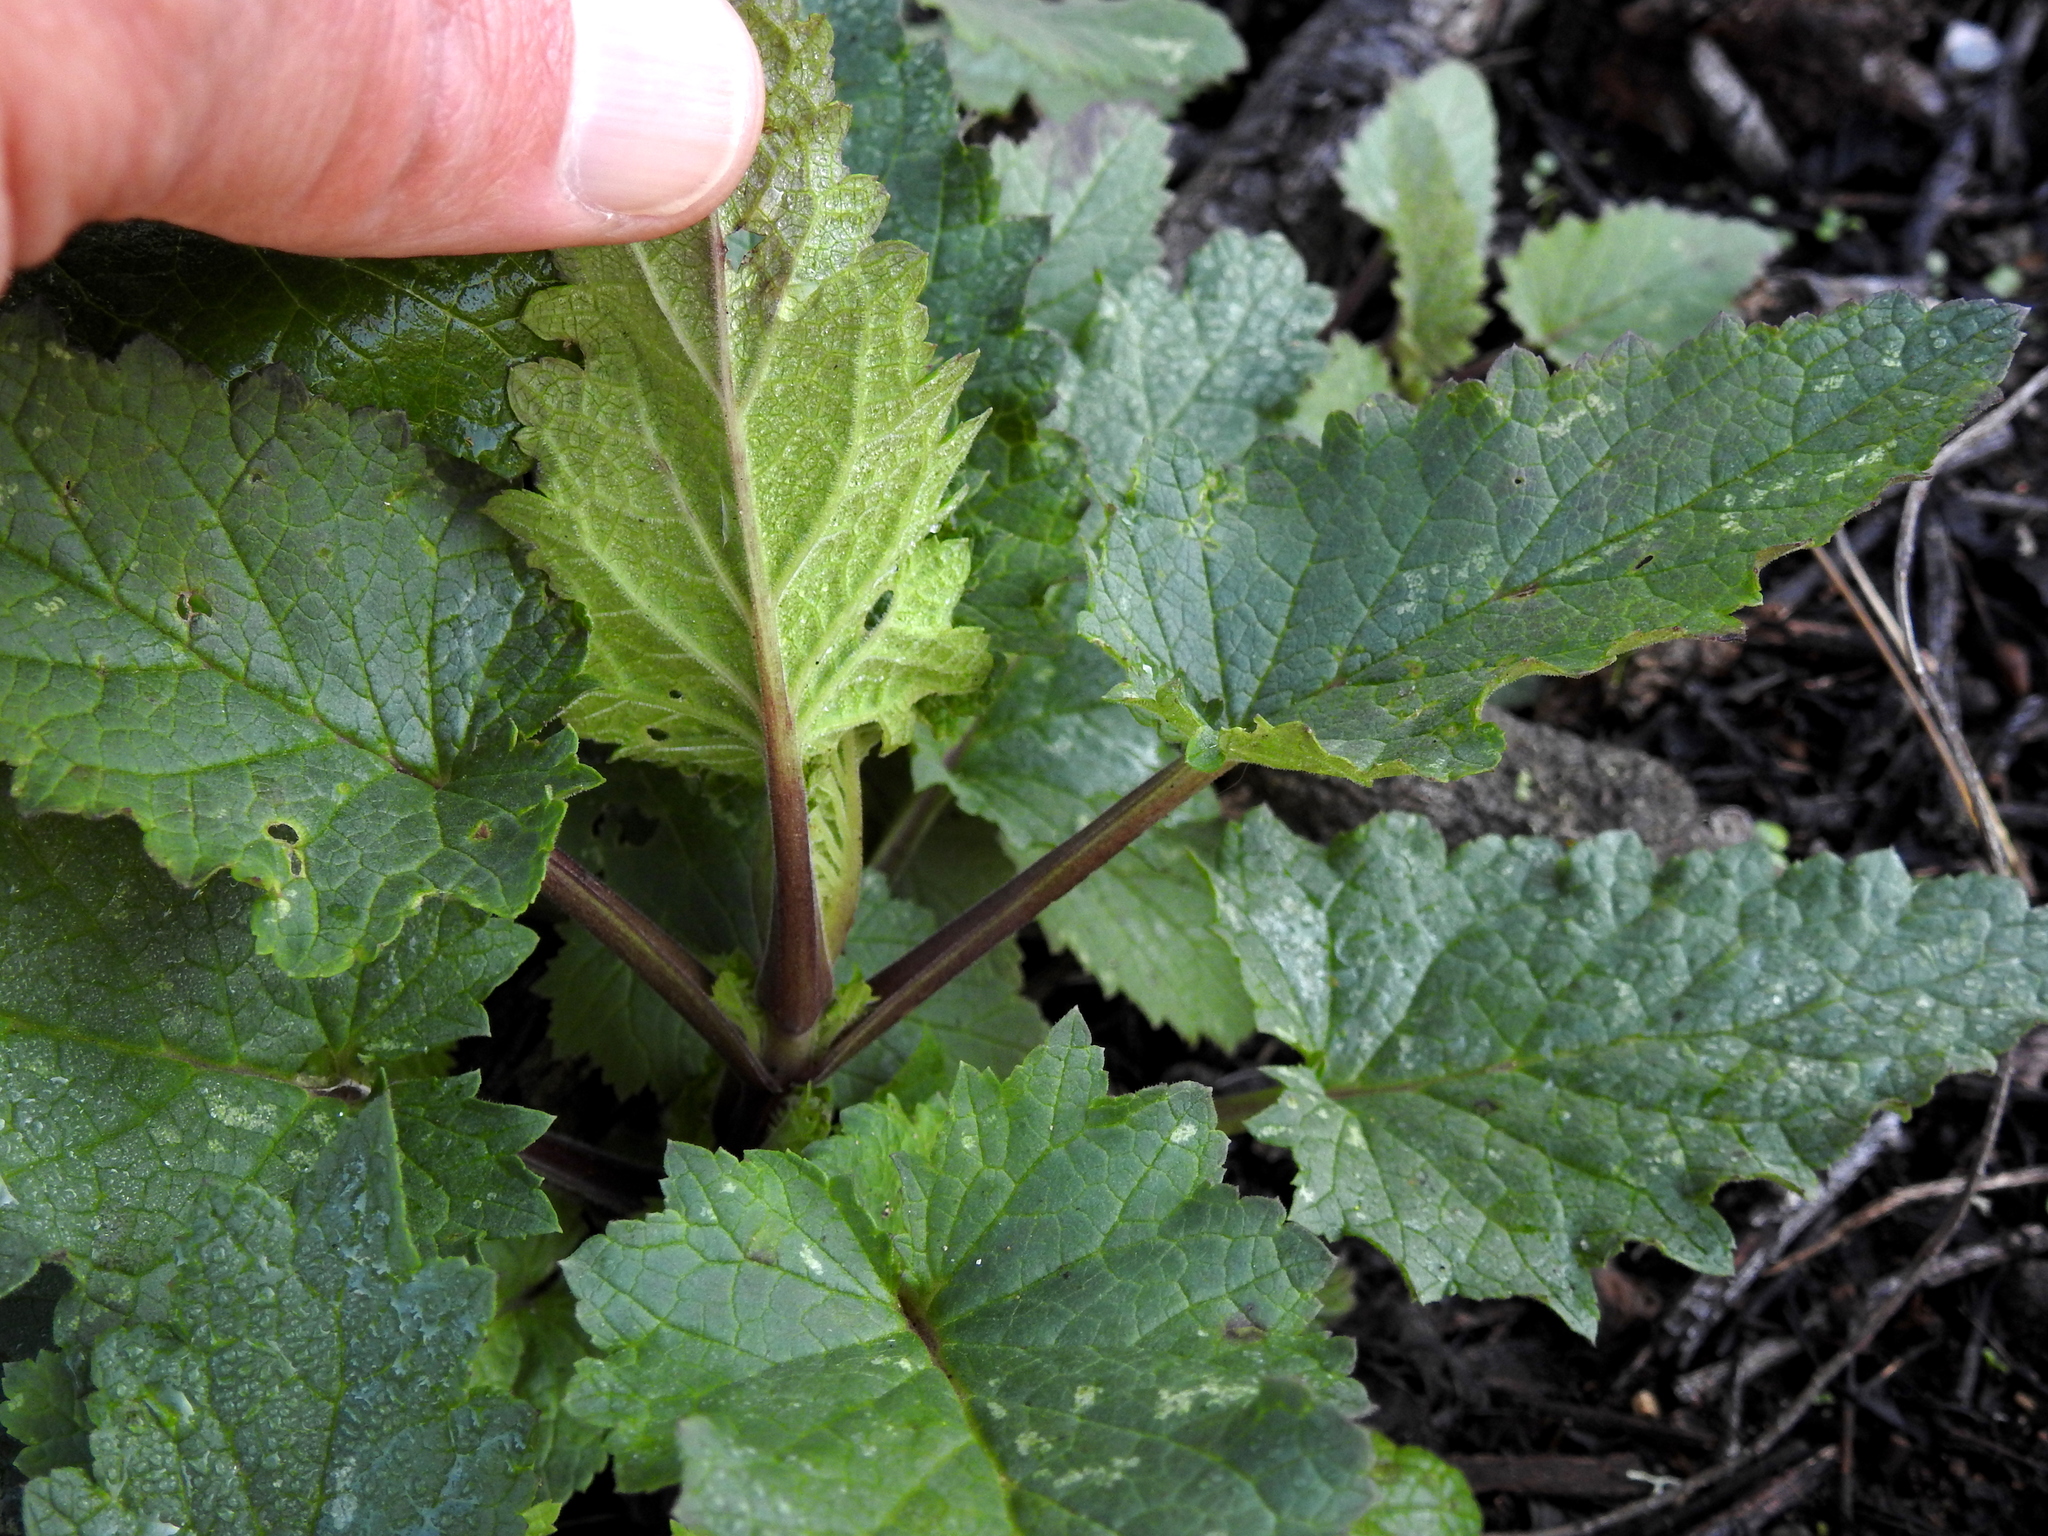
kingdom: Plantae
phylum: Tracheophyta
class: Magnoliopsida
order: Lamiales
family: Scrophulariaceae
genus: Scrophularia
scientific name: Scrophularia californica
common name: California figwort
